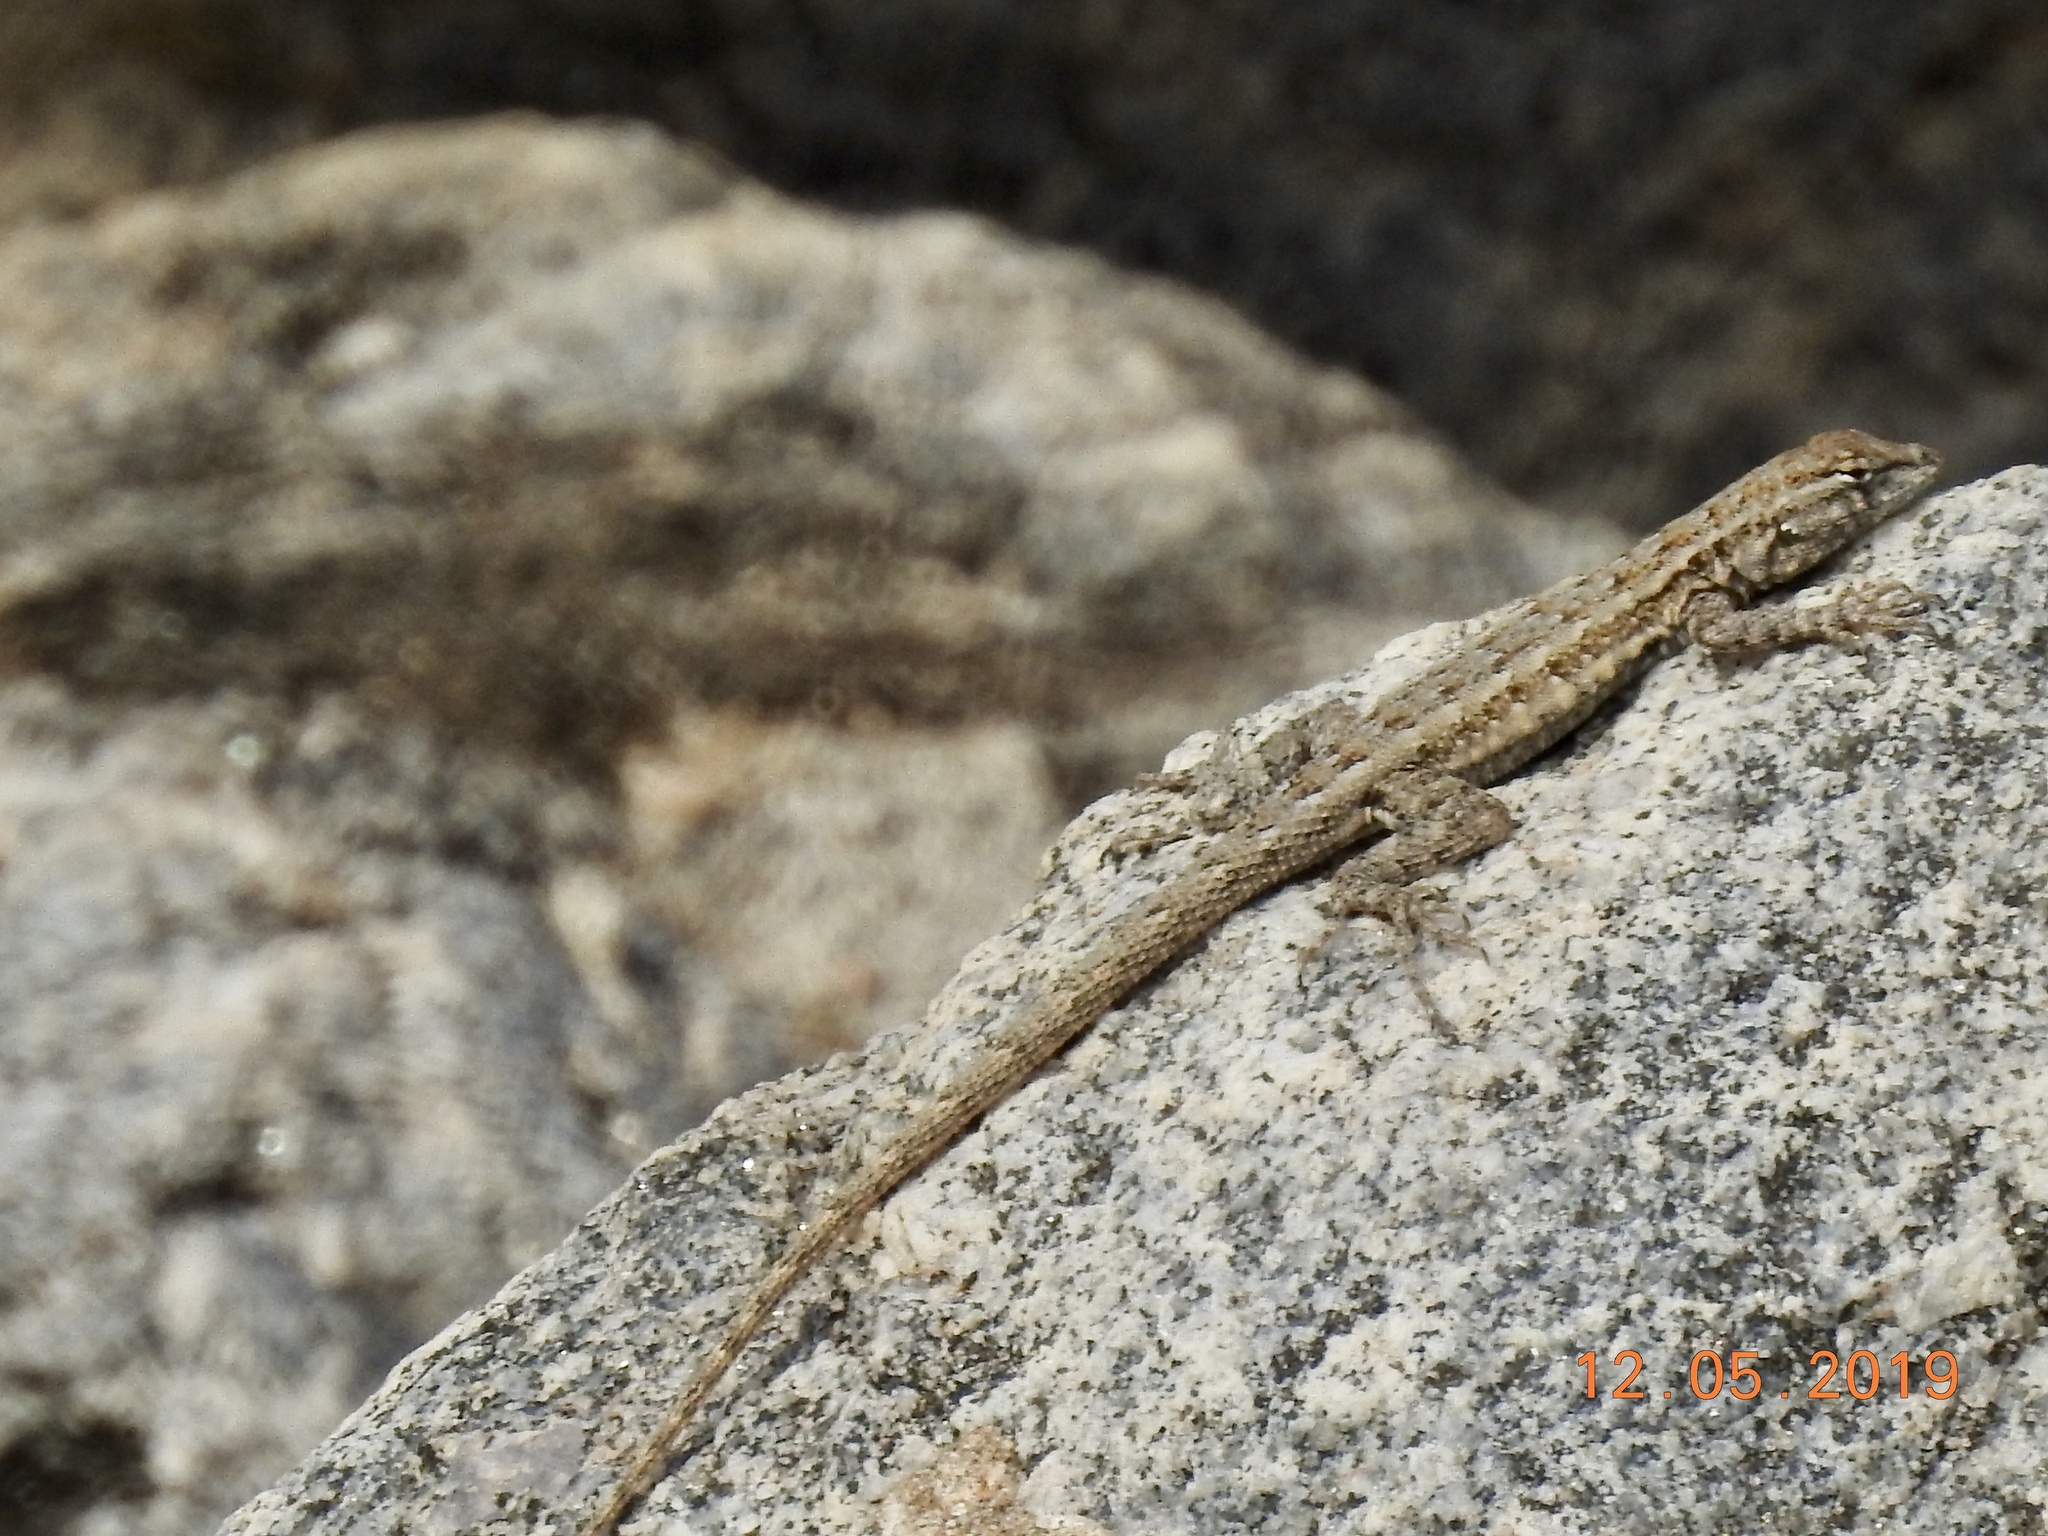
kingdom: Animalia
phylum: Chordata
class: Squamata
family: Phrynosomatidae
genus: Uta
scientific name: Uta stansburiana
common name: Side-blotched lizard
